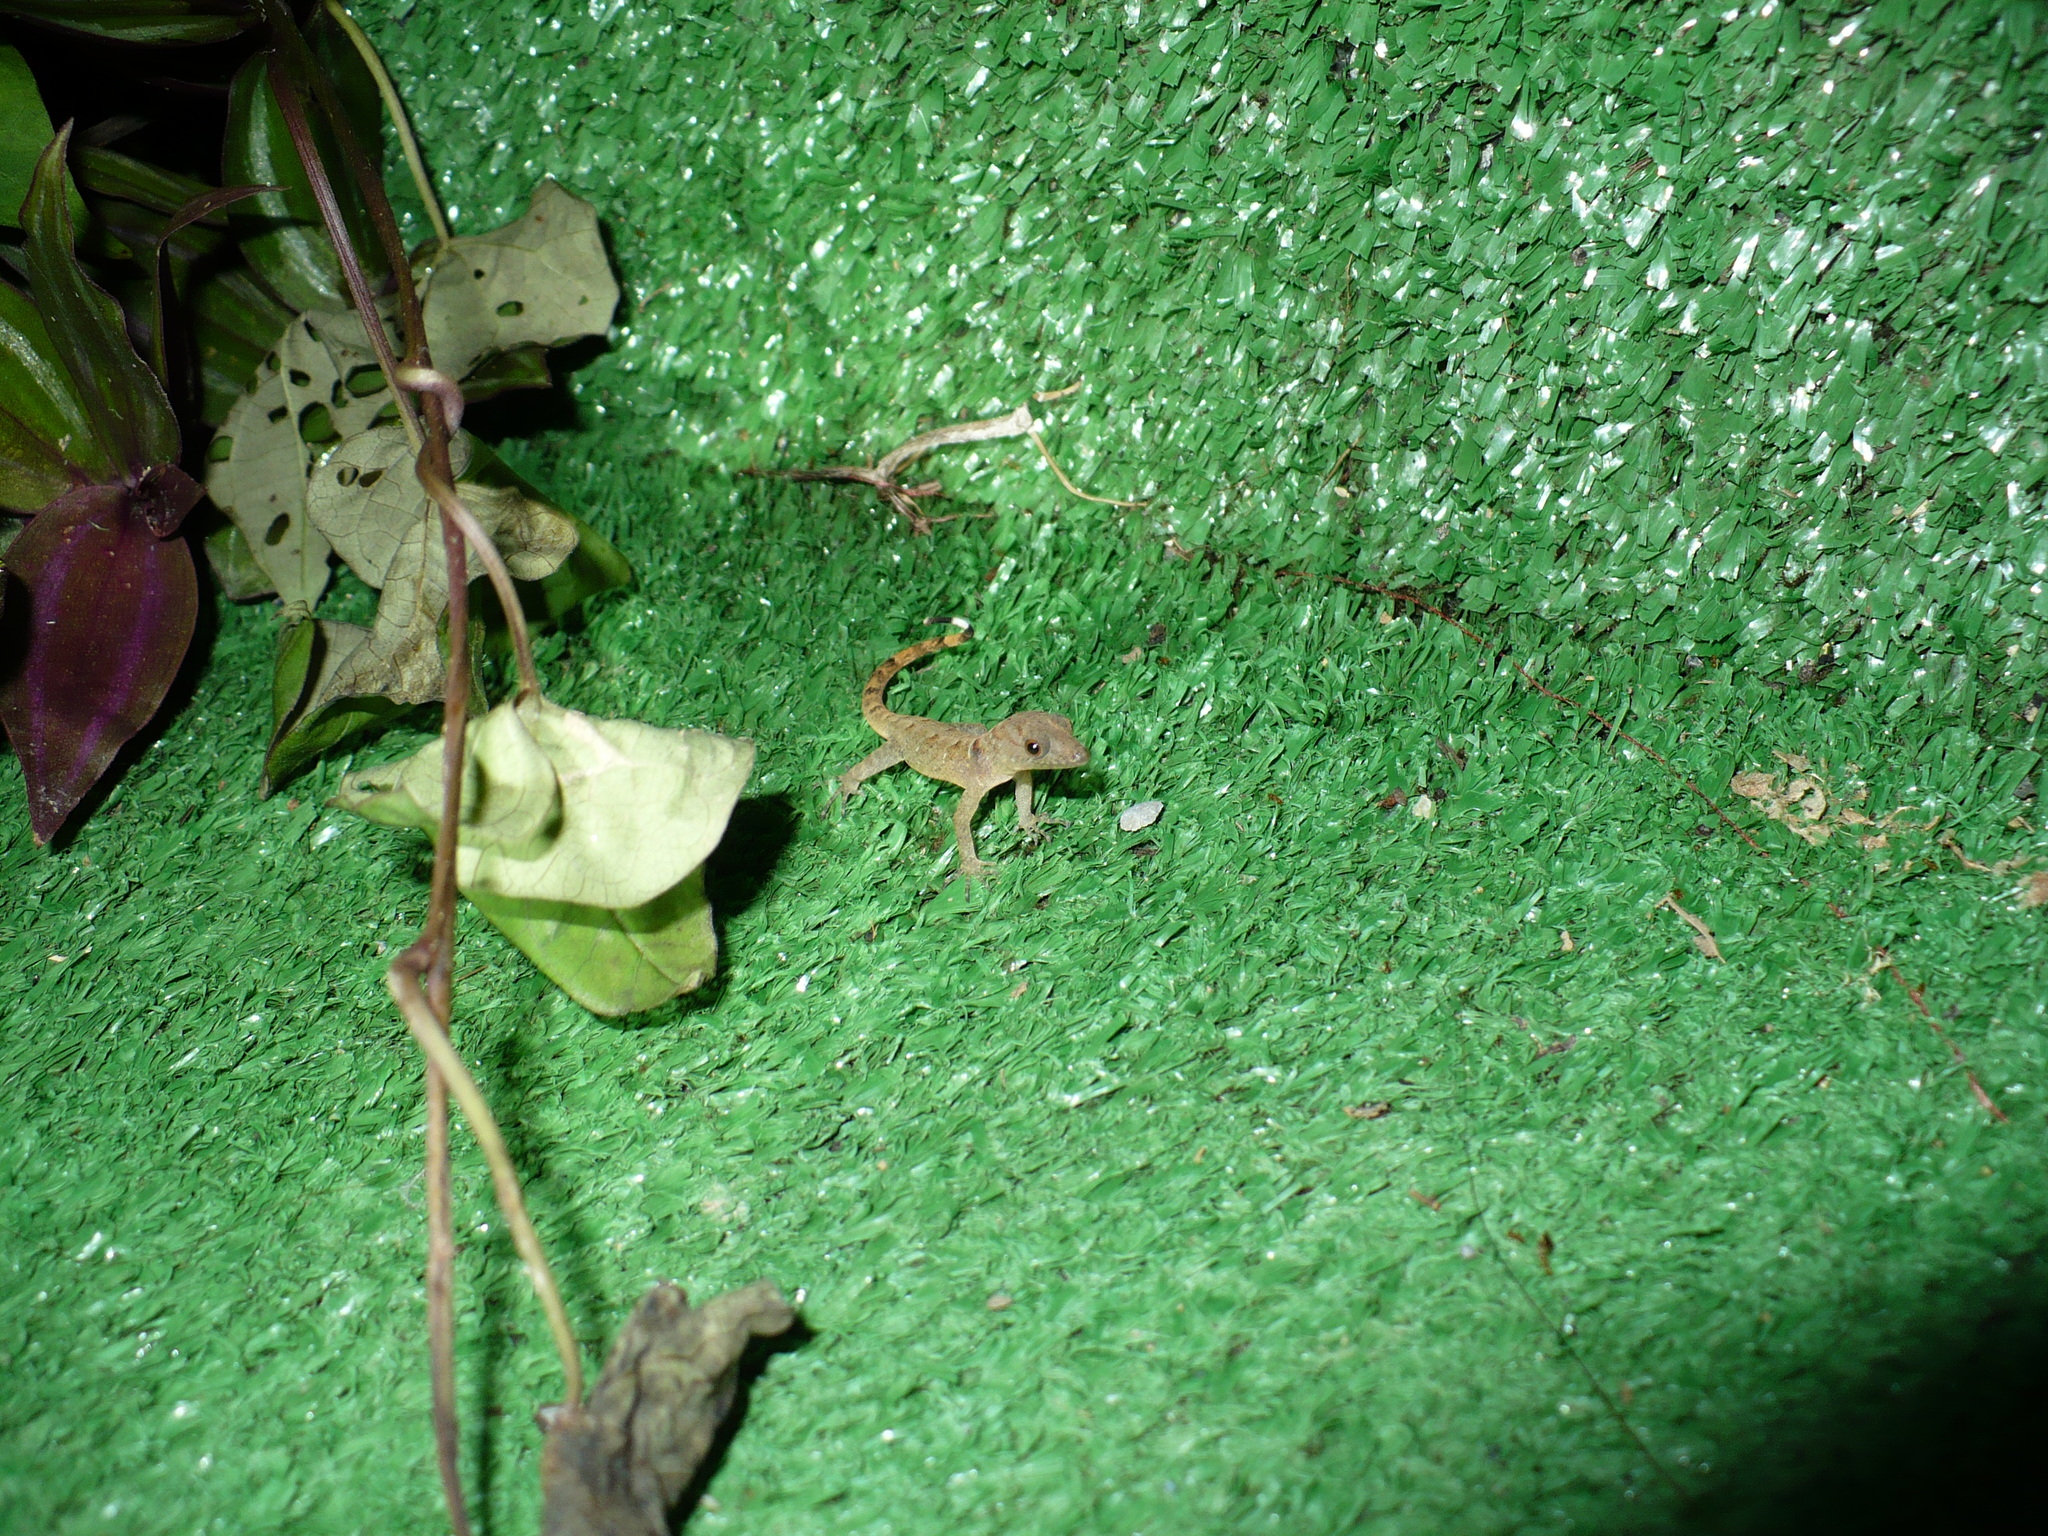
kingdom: Animalia
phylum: Chordata
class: Squamata
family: Sphaerodactylidae
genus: Gonatodes
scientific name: Gonatodes ceciliae
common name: Brilliant south american gecko
